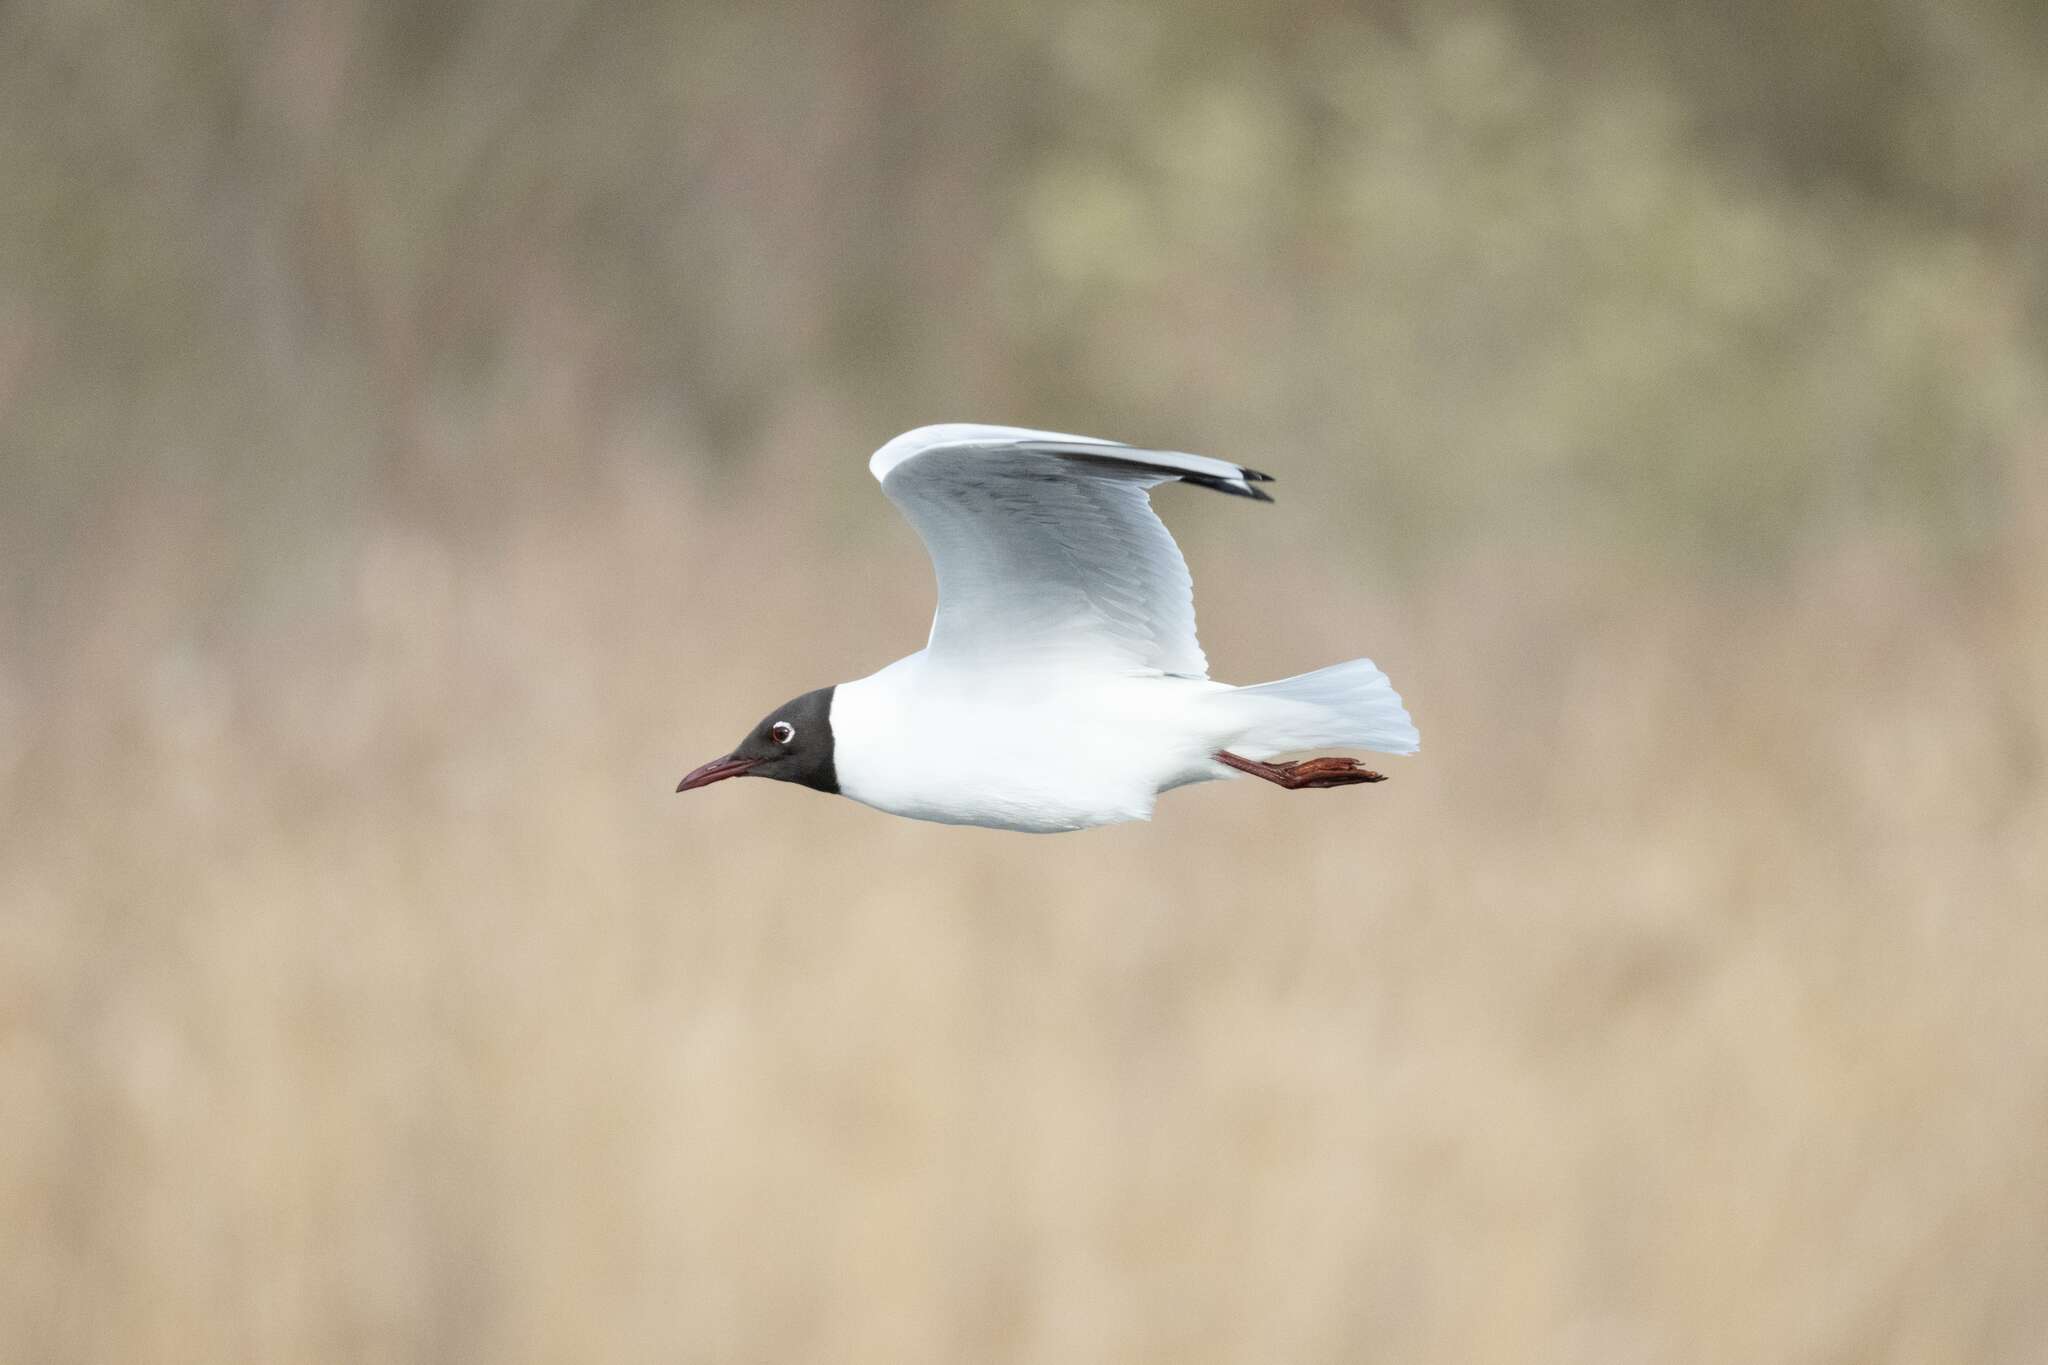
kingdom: Animalia
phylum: Chordata
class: Aves
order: Charadriiformes
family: Laridae
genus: Chroicocephalus
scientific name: Chroicocephalus ridibundus
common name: Black-headed gull
